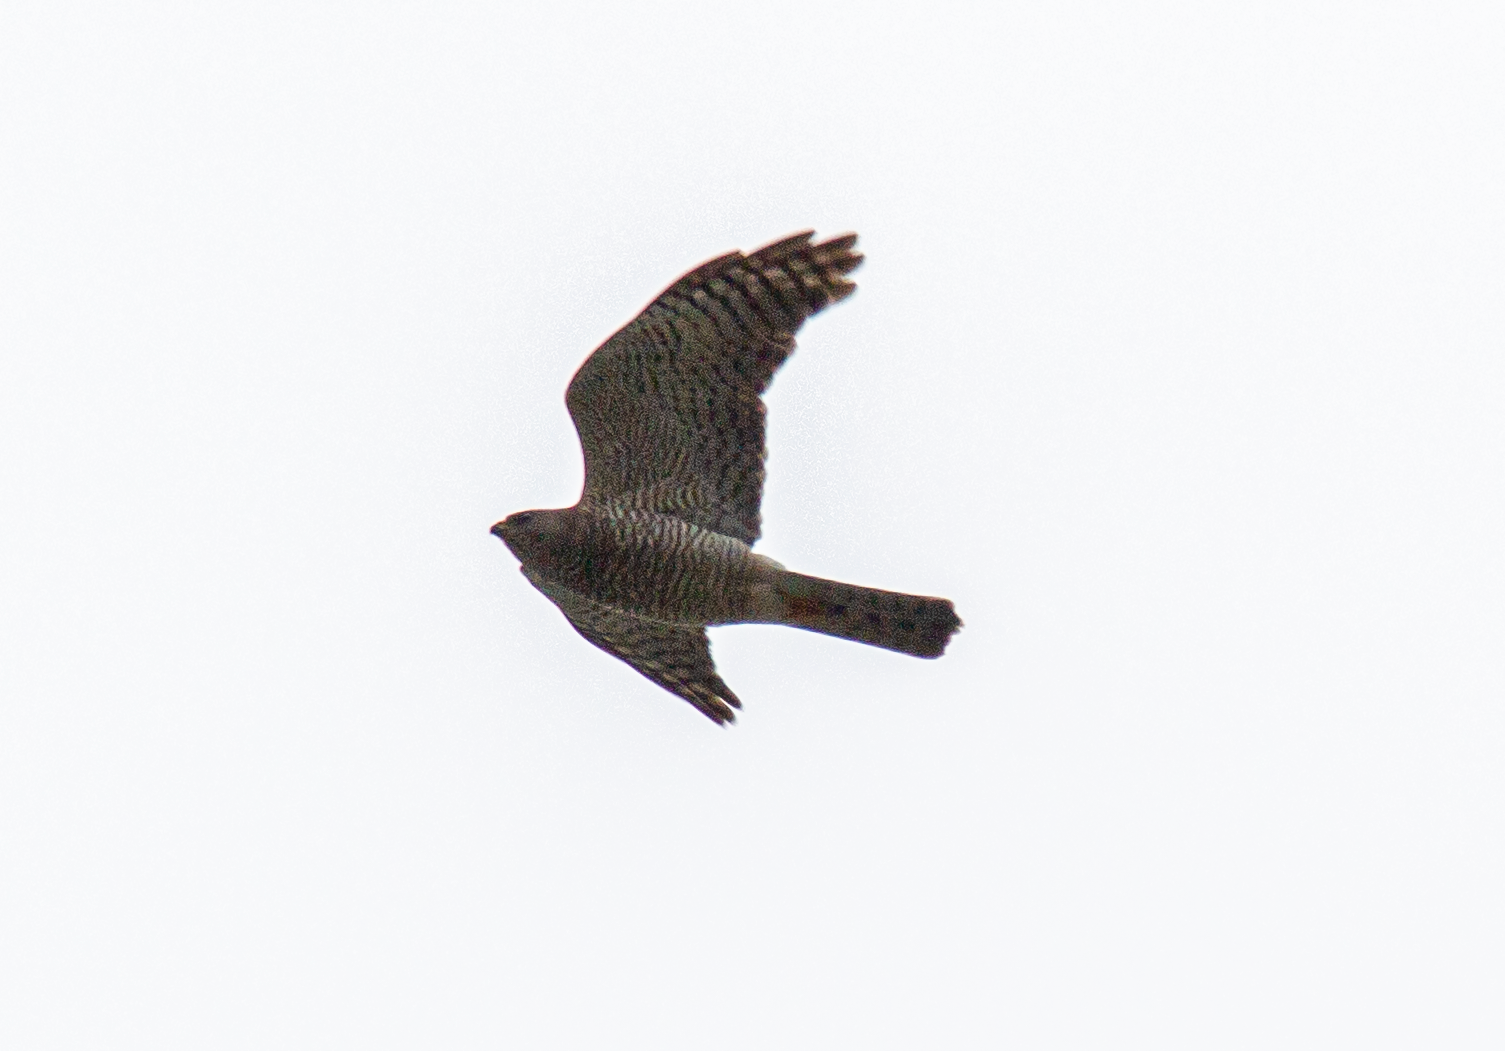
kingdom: Animalia
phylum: Chordata
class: Aves
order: Accipitriformes
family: Accipitridae
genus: Accipiter
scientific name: Accipiter nisus
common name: Eurasian sparrowhawk
